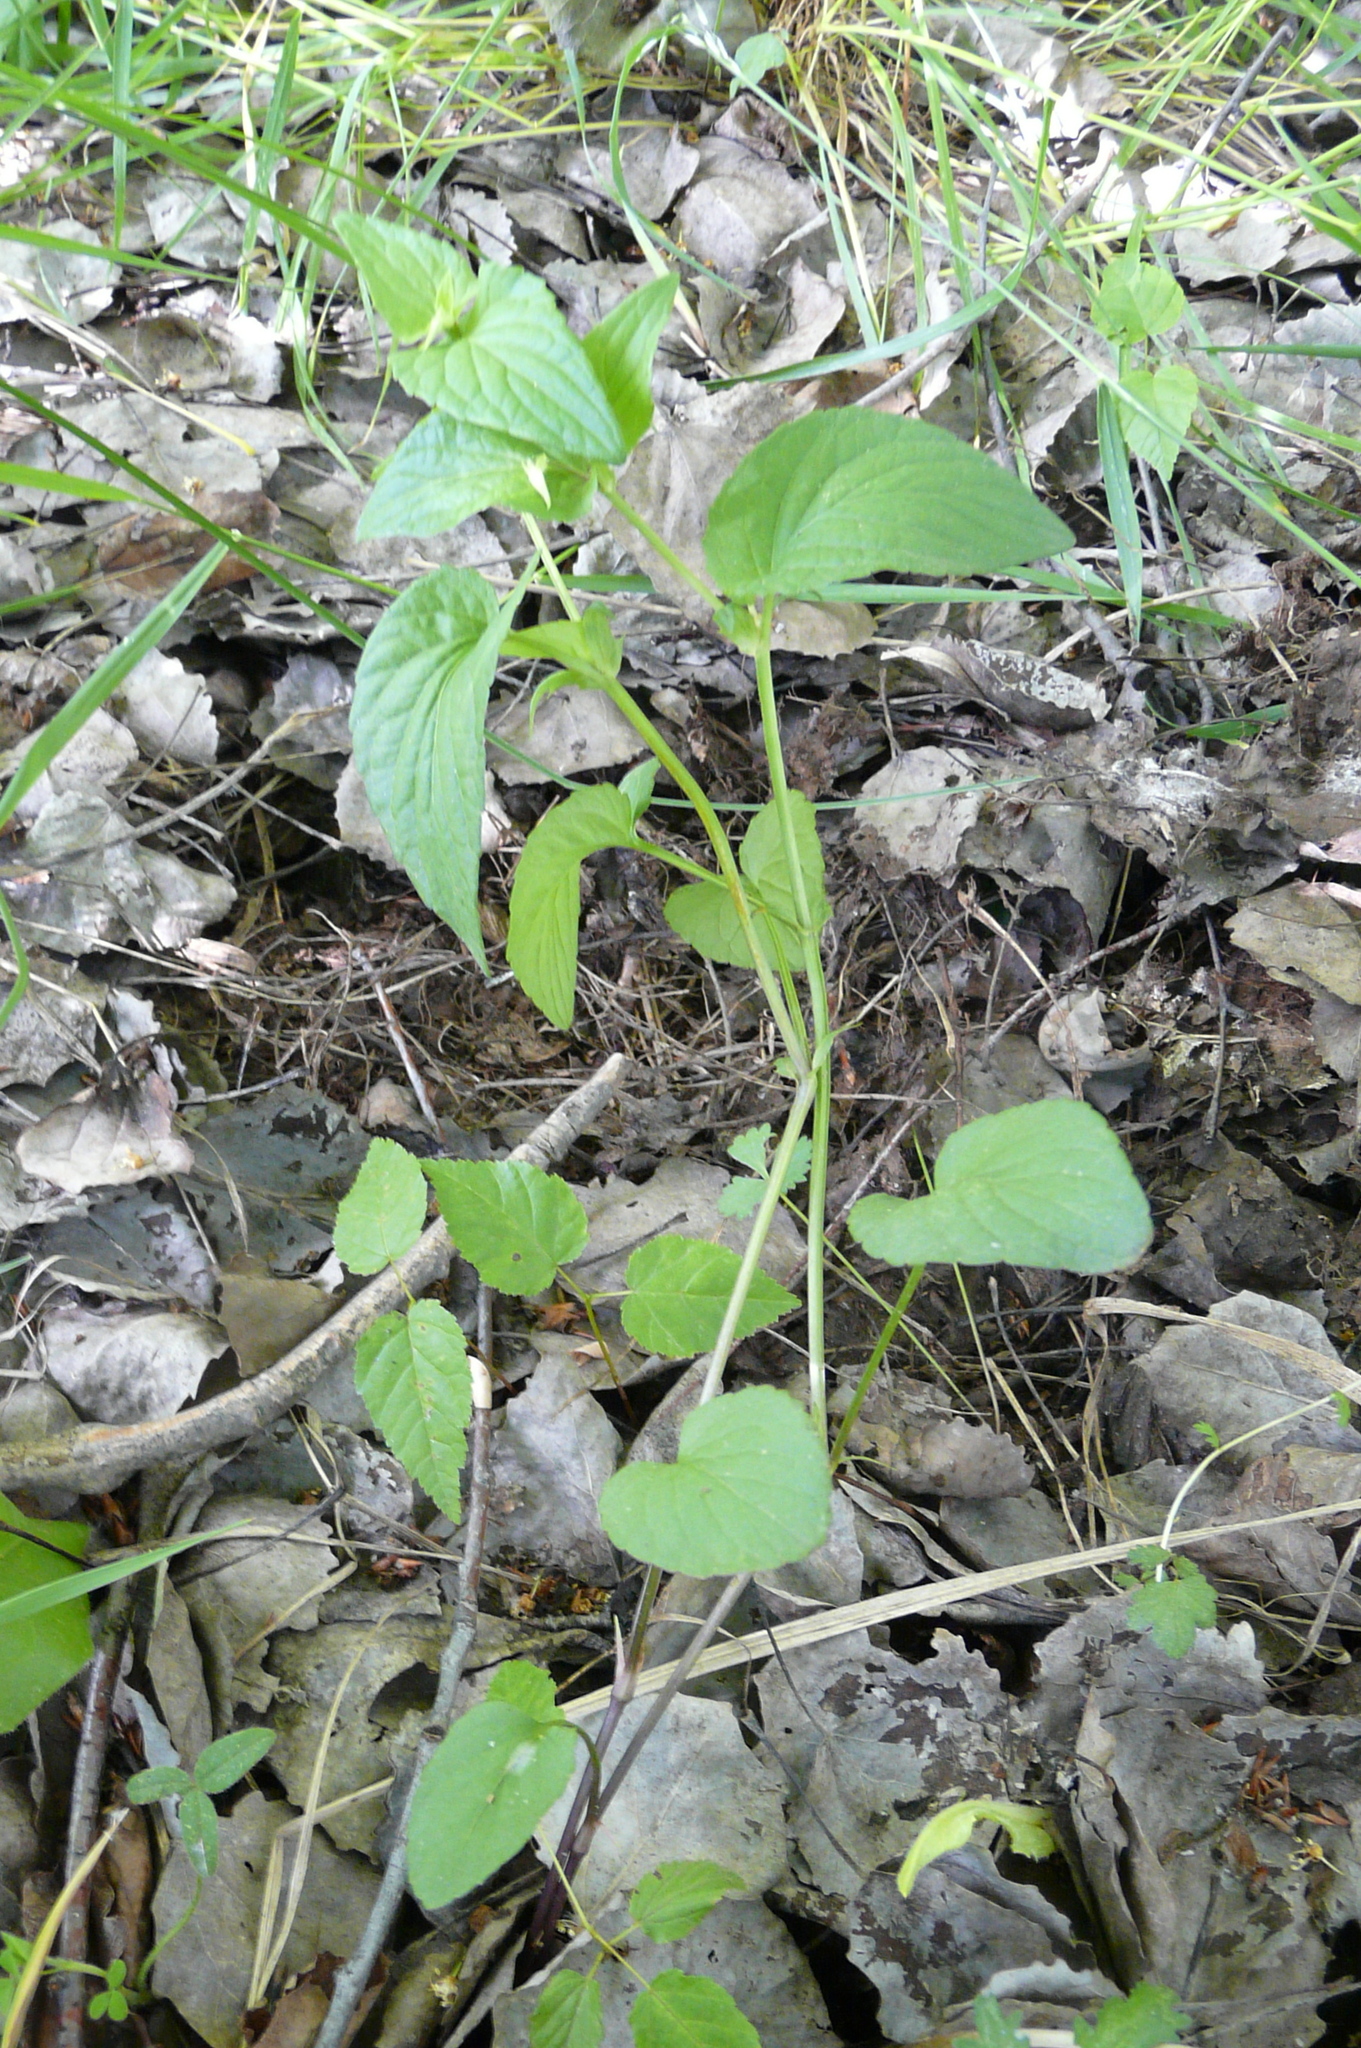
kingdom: Plantae
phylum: Tracheophyta
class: Magnoliopsida
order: Malpighiales
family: Violaceae
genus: Viola
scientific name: Viola
